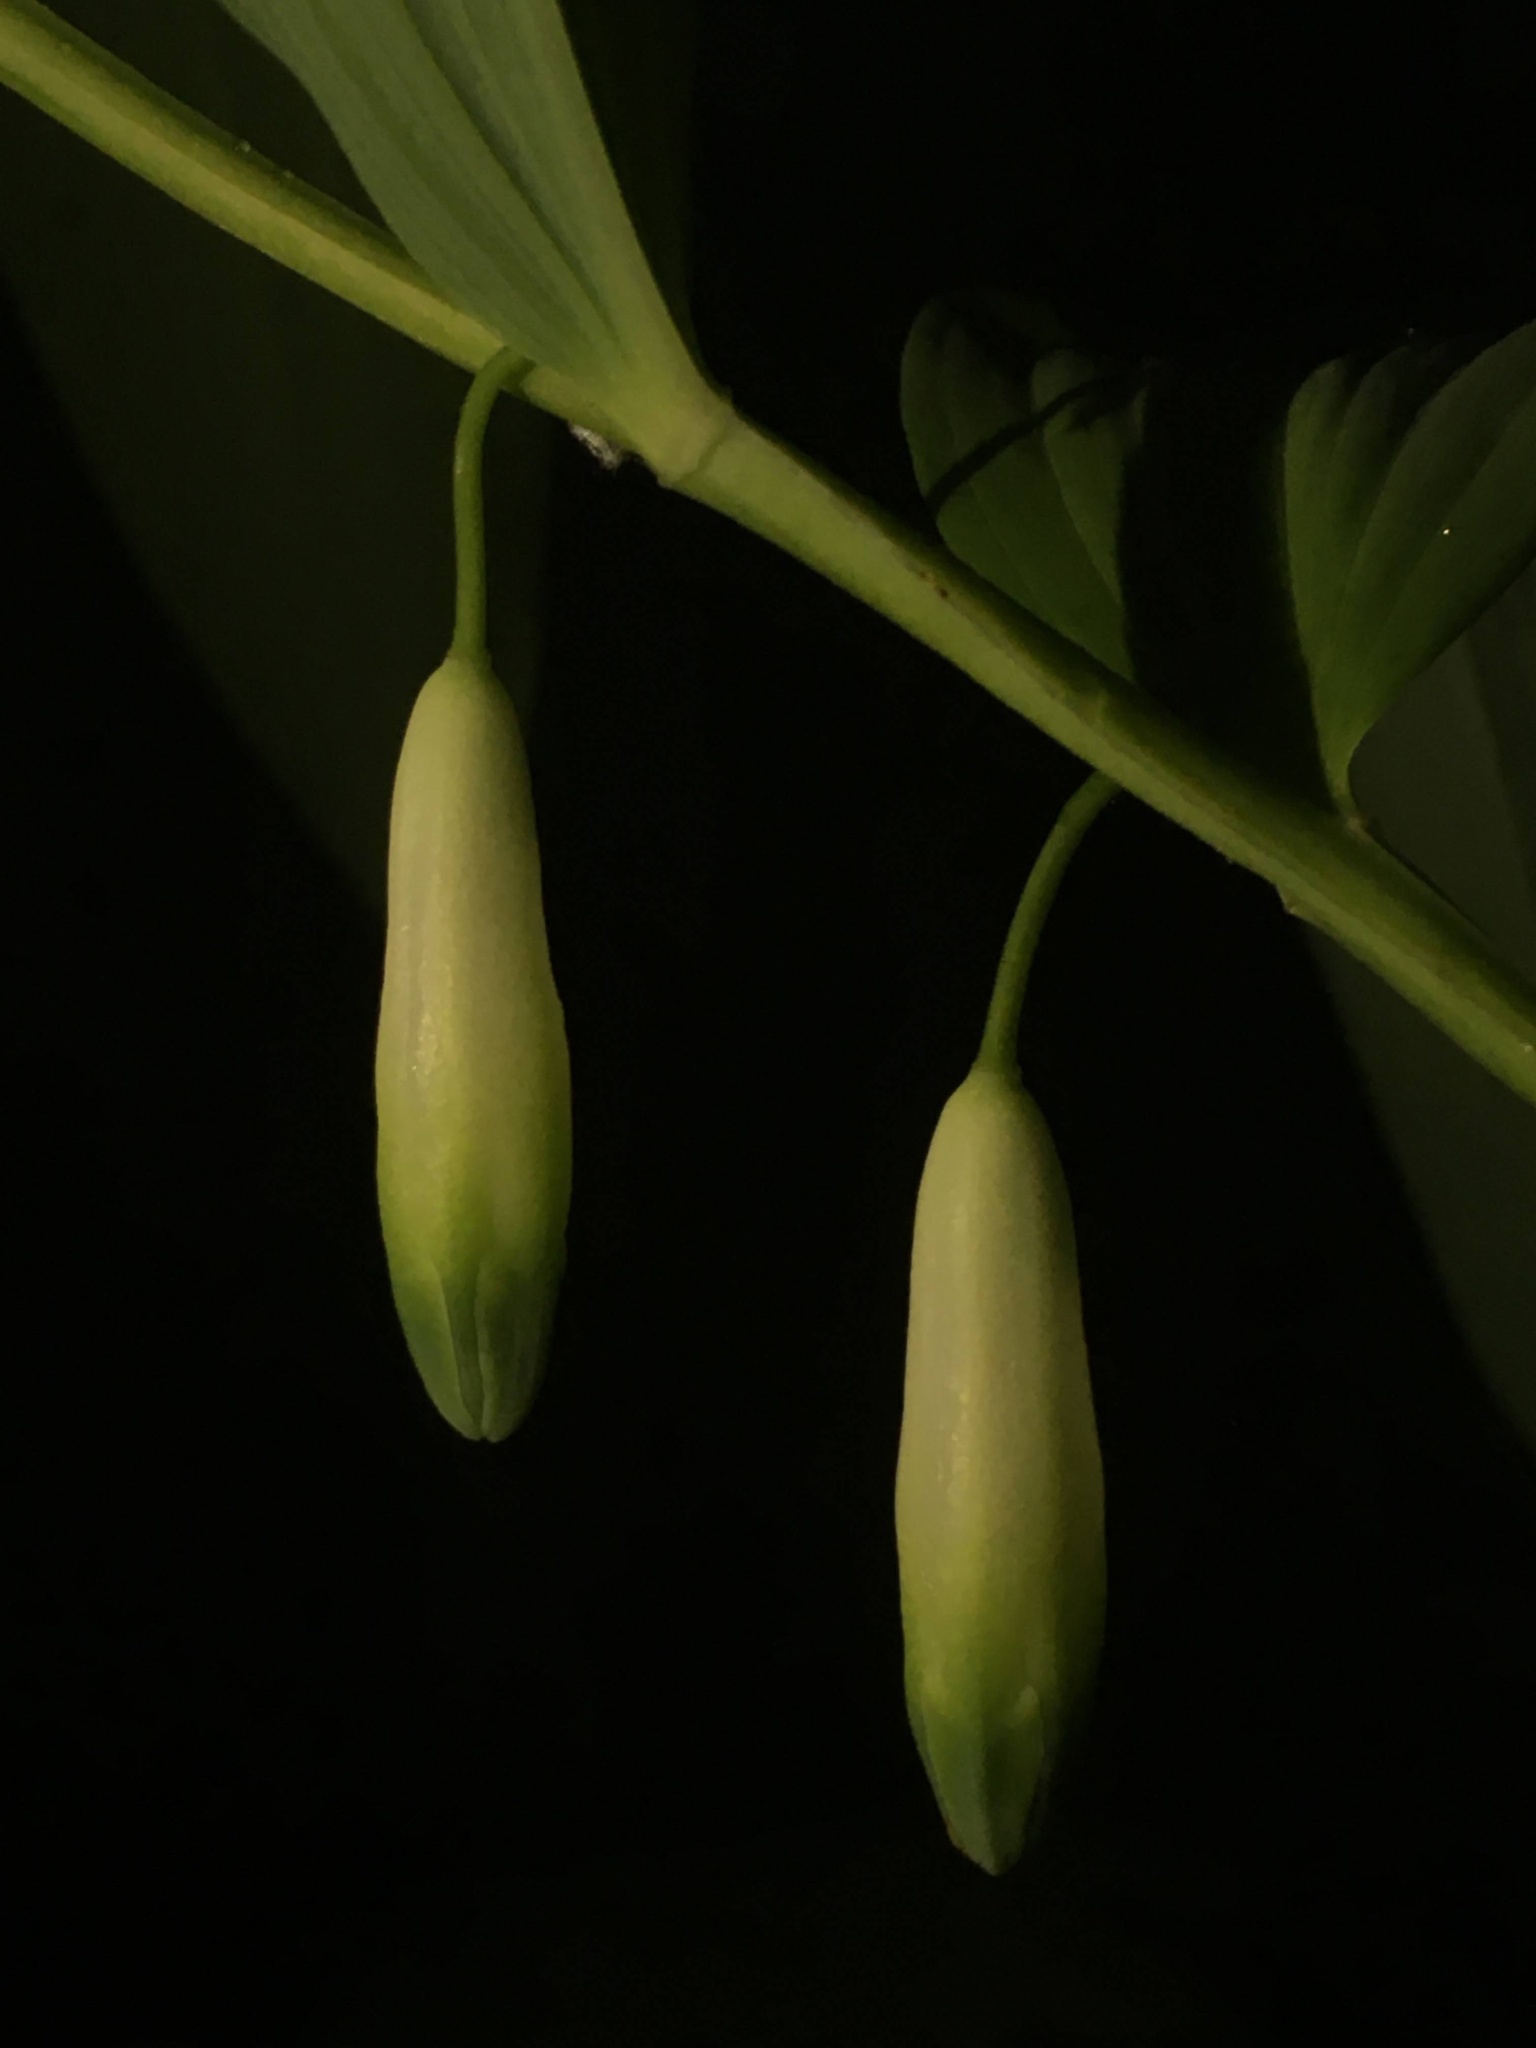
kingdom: Plantae
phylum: Tracheophyta
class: Liliopsida
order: Asparagales
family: Asparagaceae
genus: Polygonatum
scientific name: Polygonatum odoratum
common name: Angular solomon's-seal
